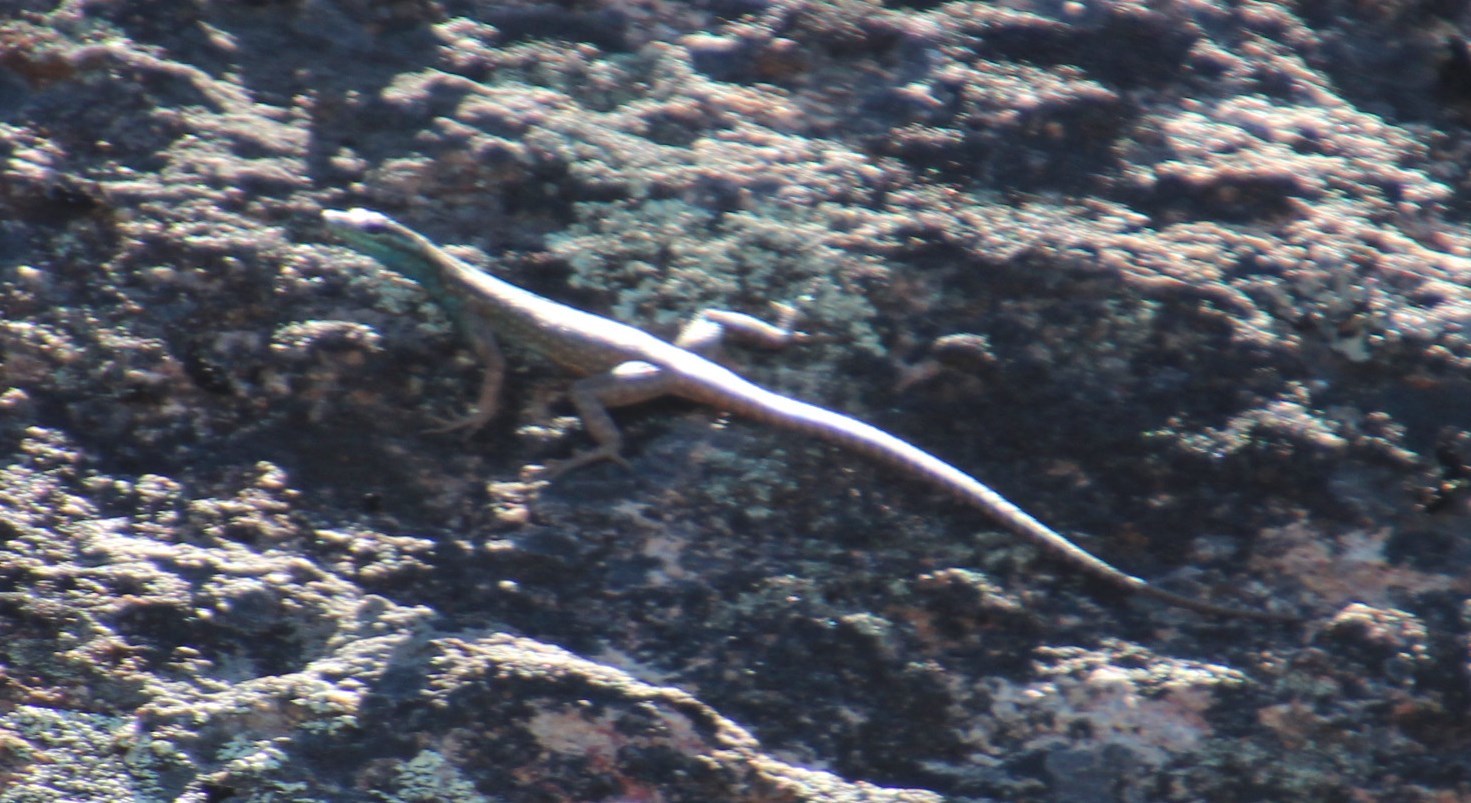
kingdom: Animalia
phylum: Chordata
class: Squamata
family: Cordylidae
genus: Platysaurus
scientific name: Platysaurus capensis
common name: Namaqua flat lizard
